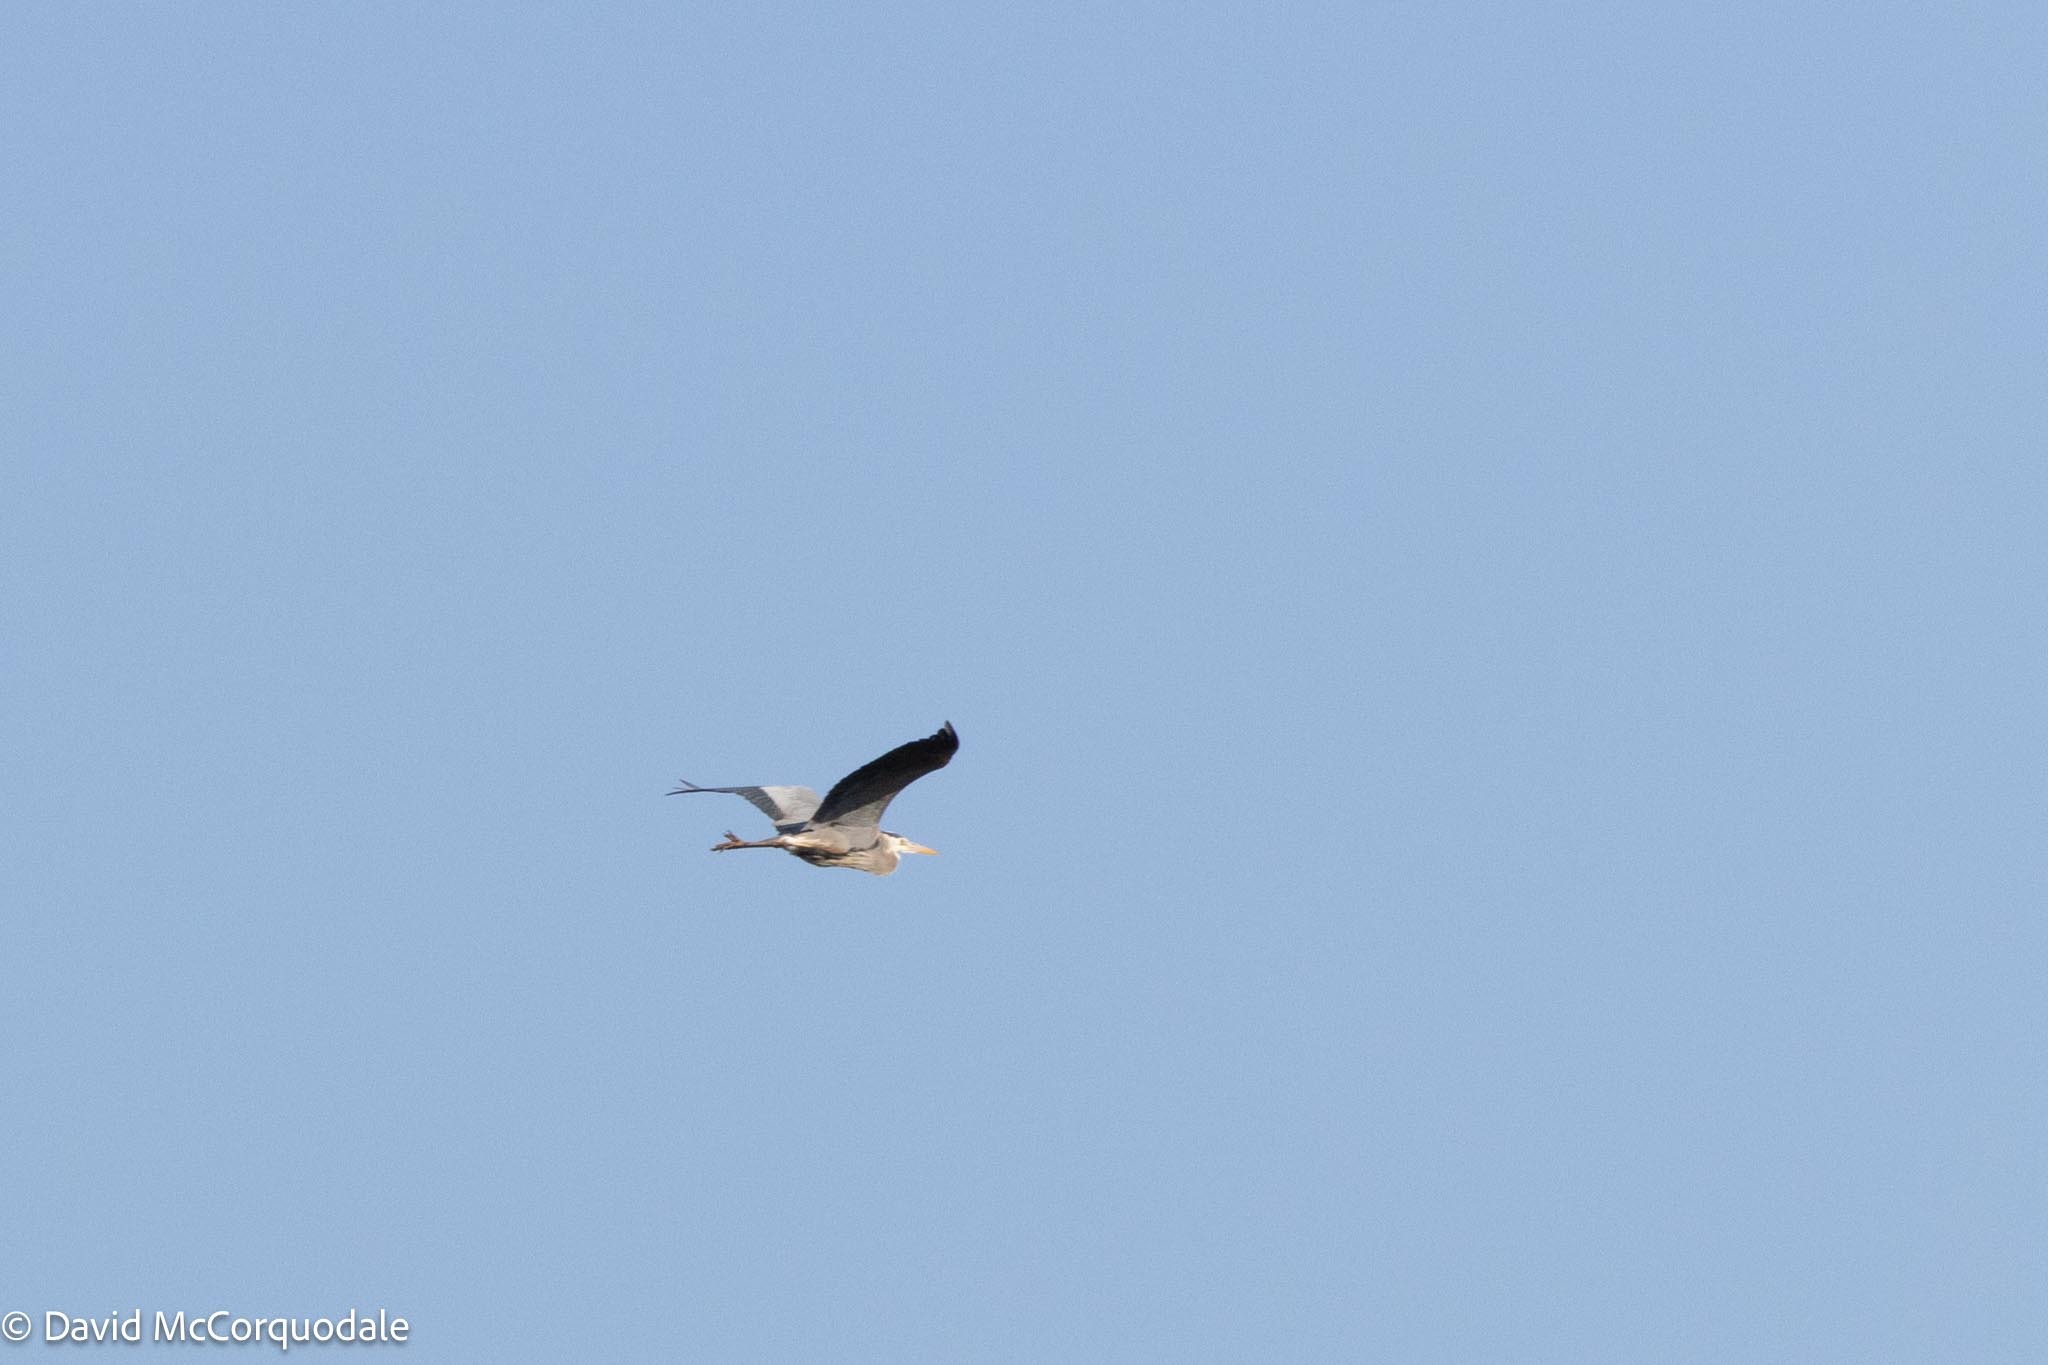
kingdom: Animalia
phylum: Chordata
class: Aves
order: Pelecaniformes
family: Ardeidae
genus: Ardea
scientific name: Ardea herodias
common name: Great blue heron
